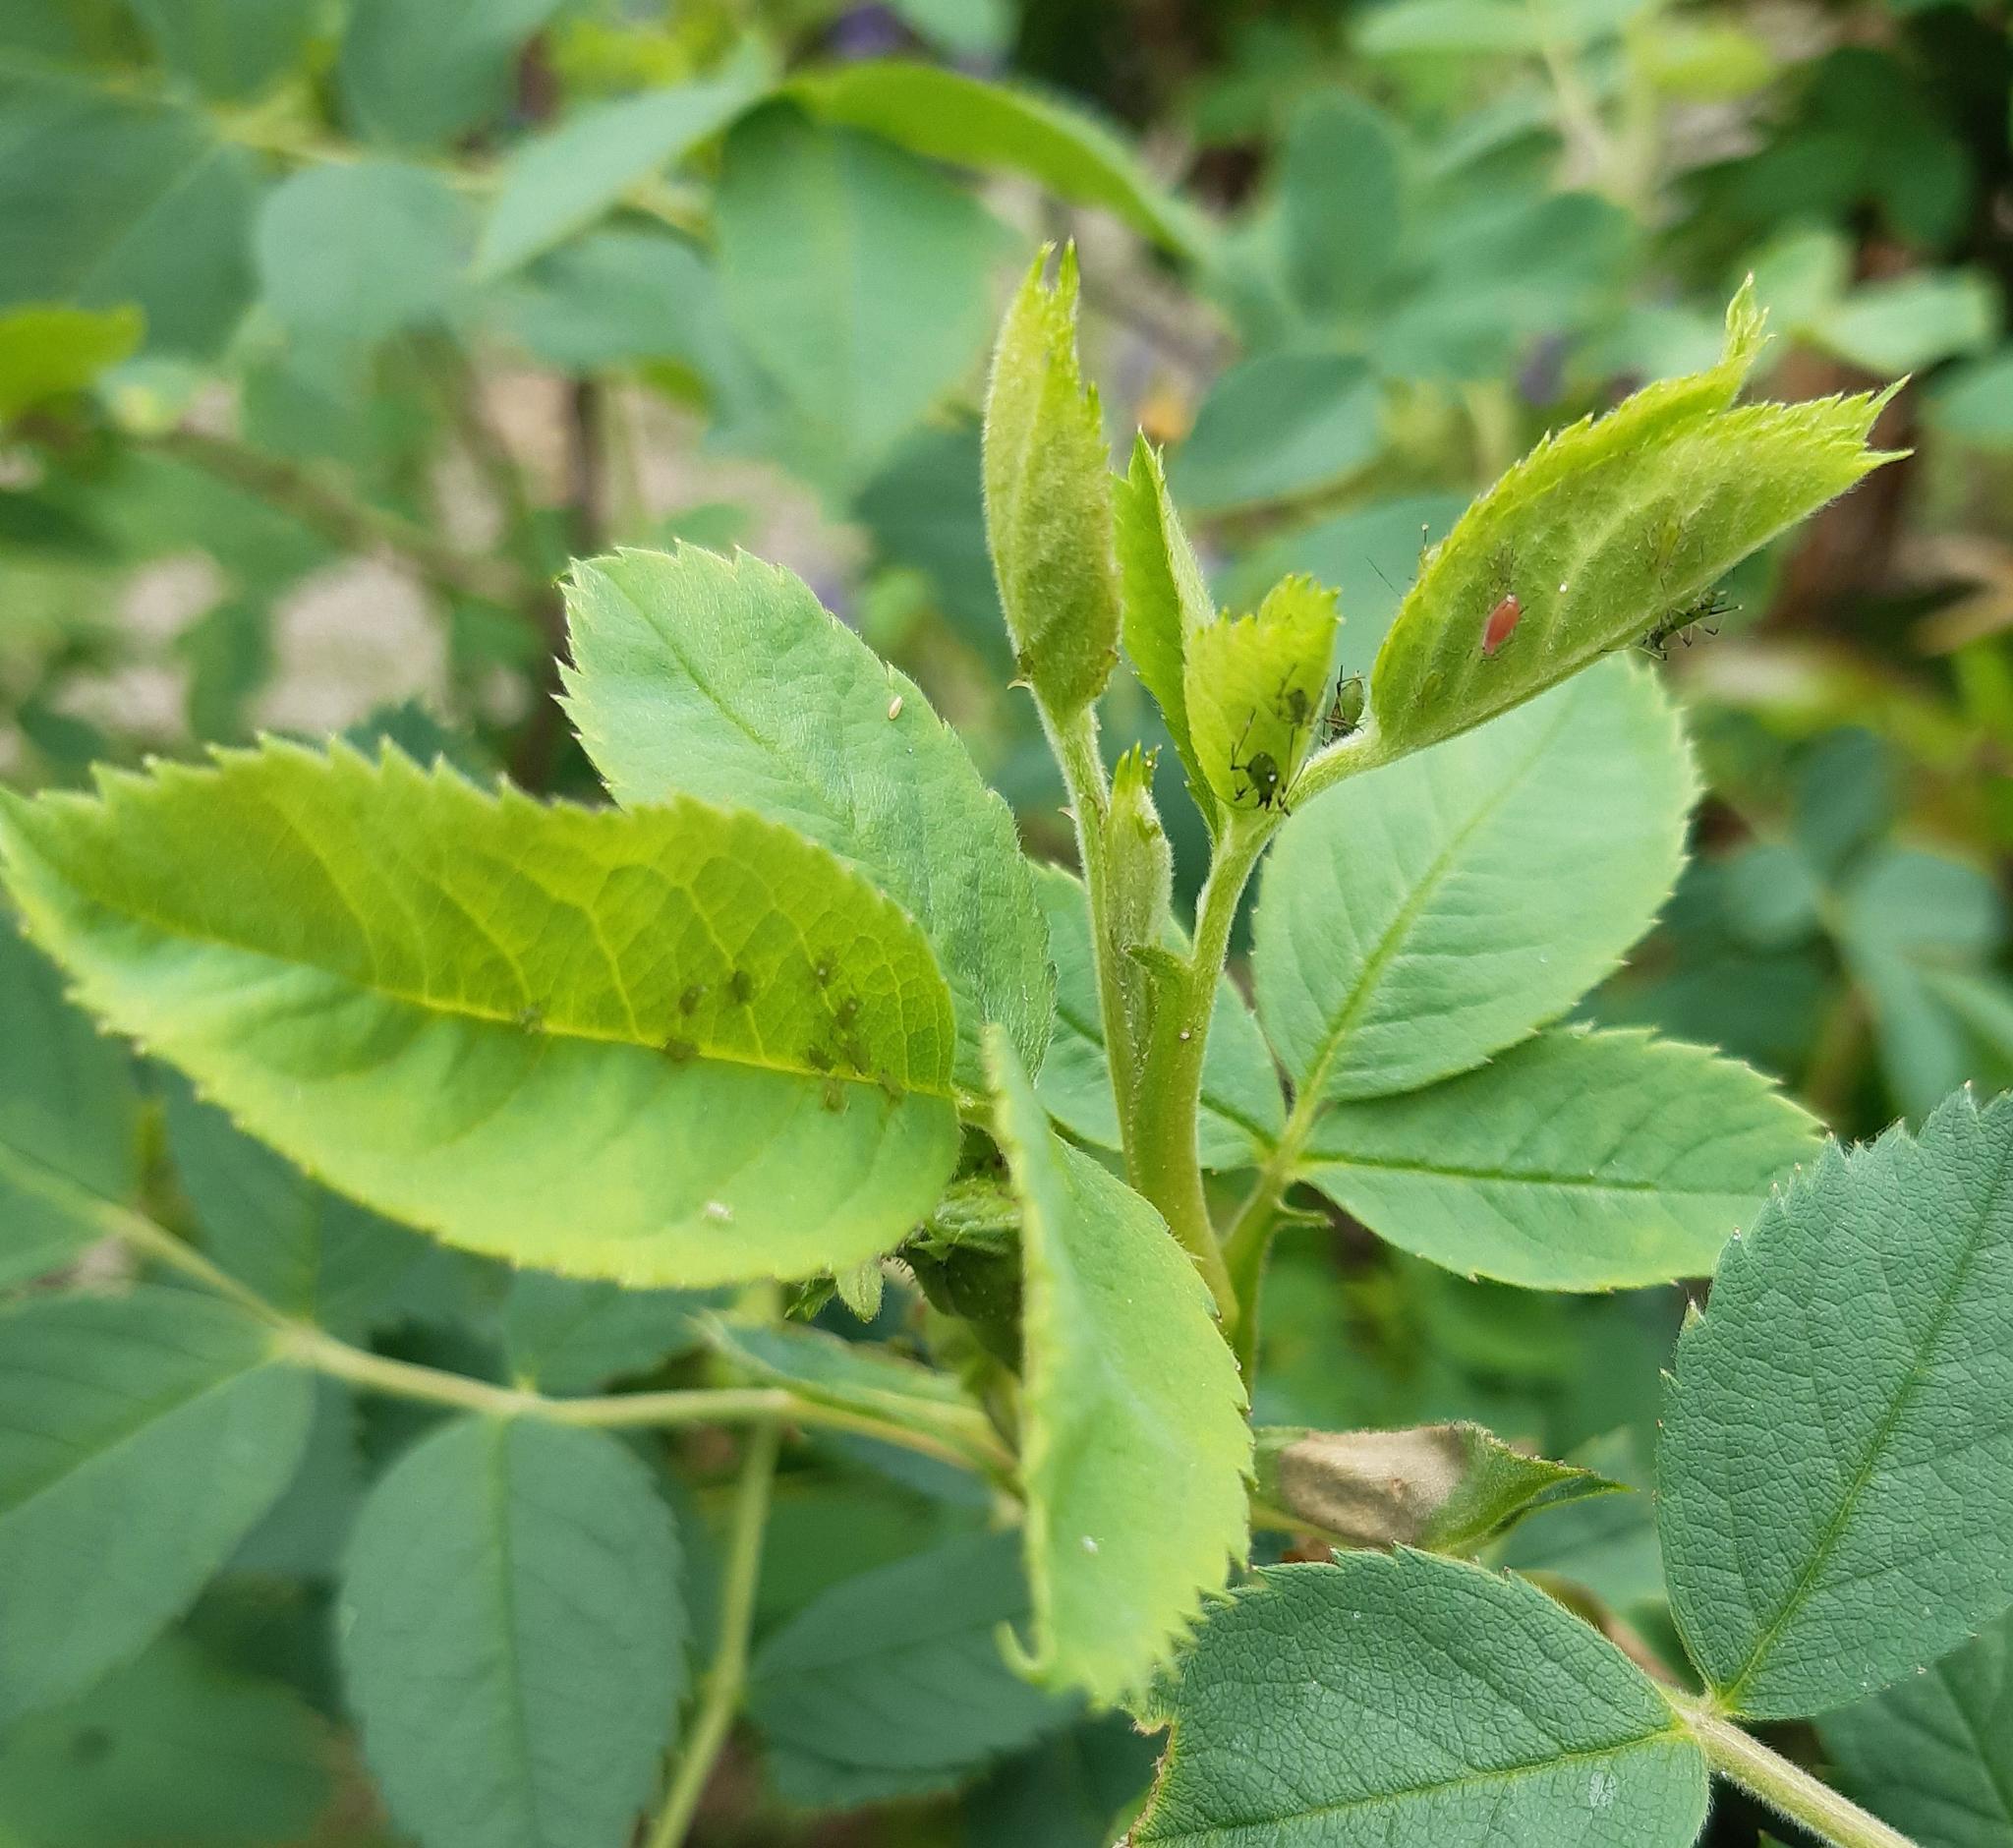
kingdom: Animalia
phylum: Arthropoda
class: Insecta
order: Hemiptera
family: Aphididae
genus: Macrosiphum
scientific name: Macrosiphum rosae
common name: Rose aphid
